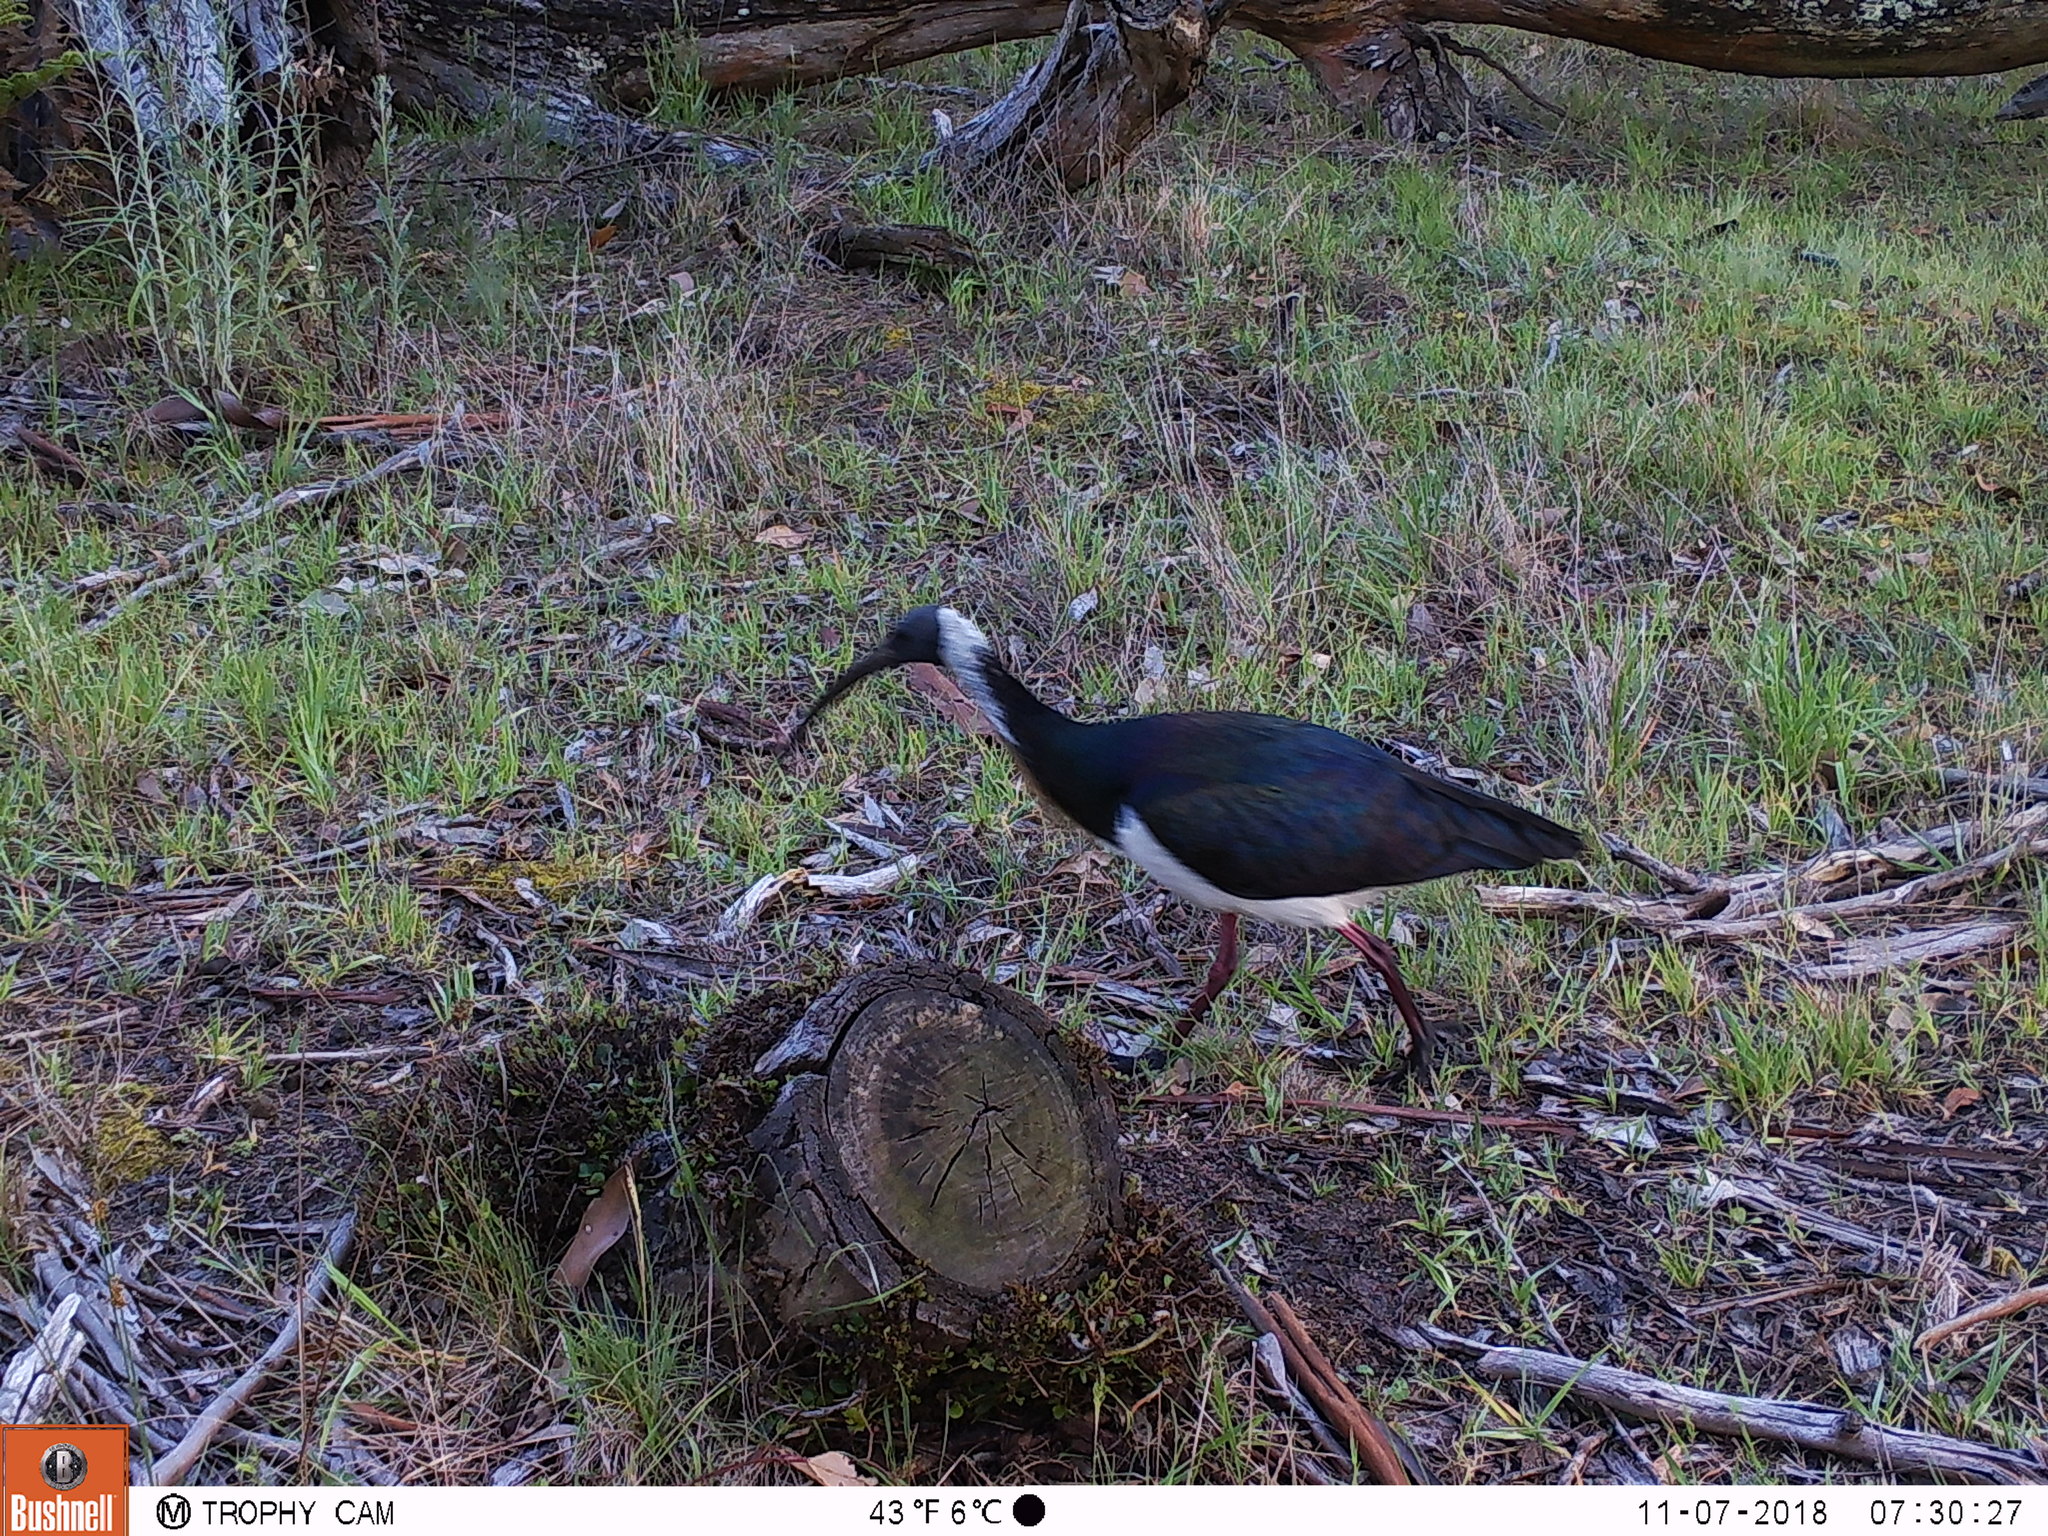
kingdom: Animalia
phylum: Chordata
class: Aves
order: Pelecaniformes
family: Threskiornithidae
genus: Threskiornis
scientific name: Threskiornis spinicollis
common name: Straw-necked ibis
